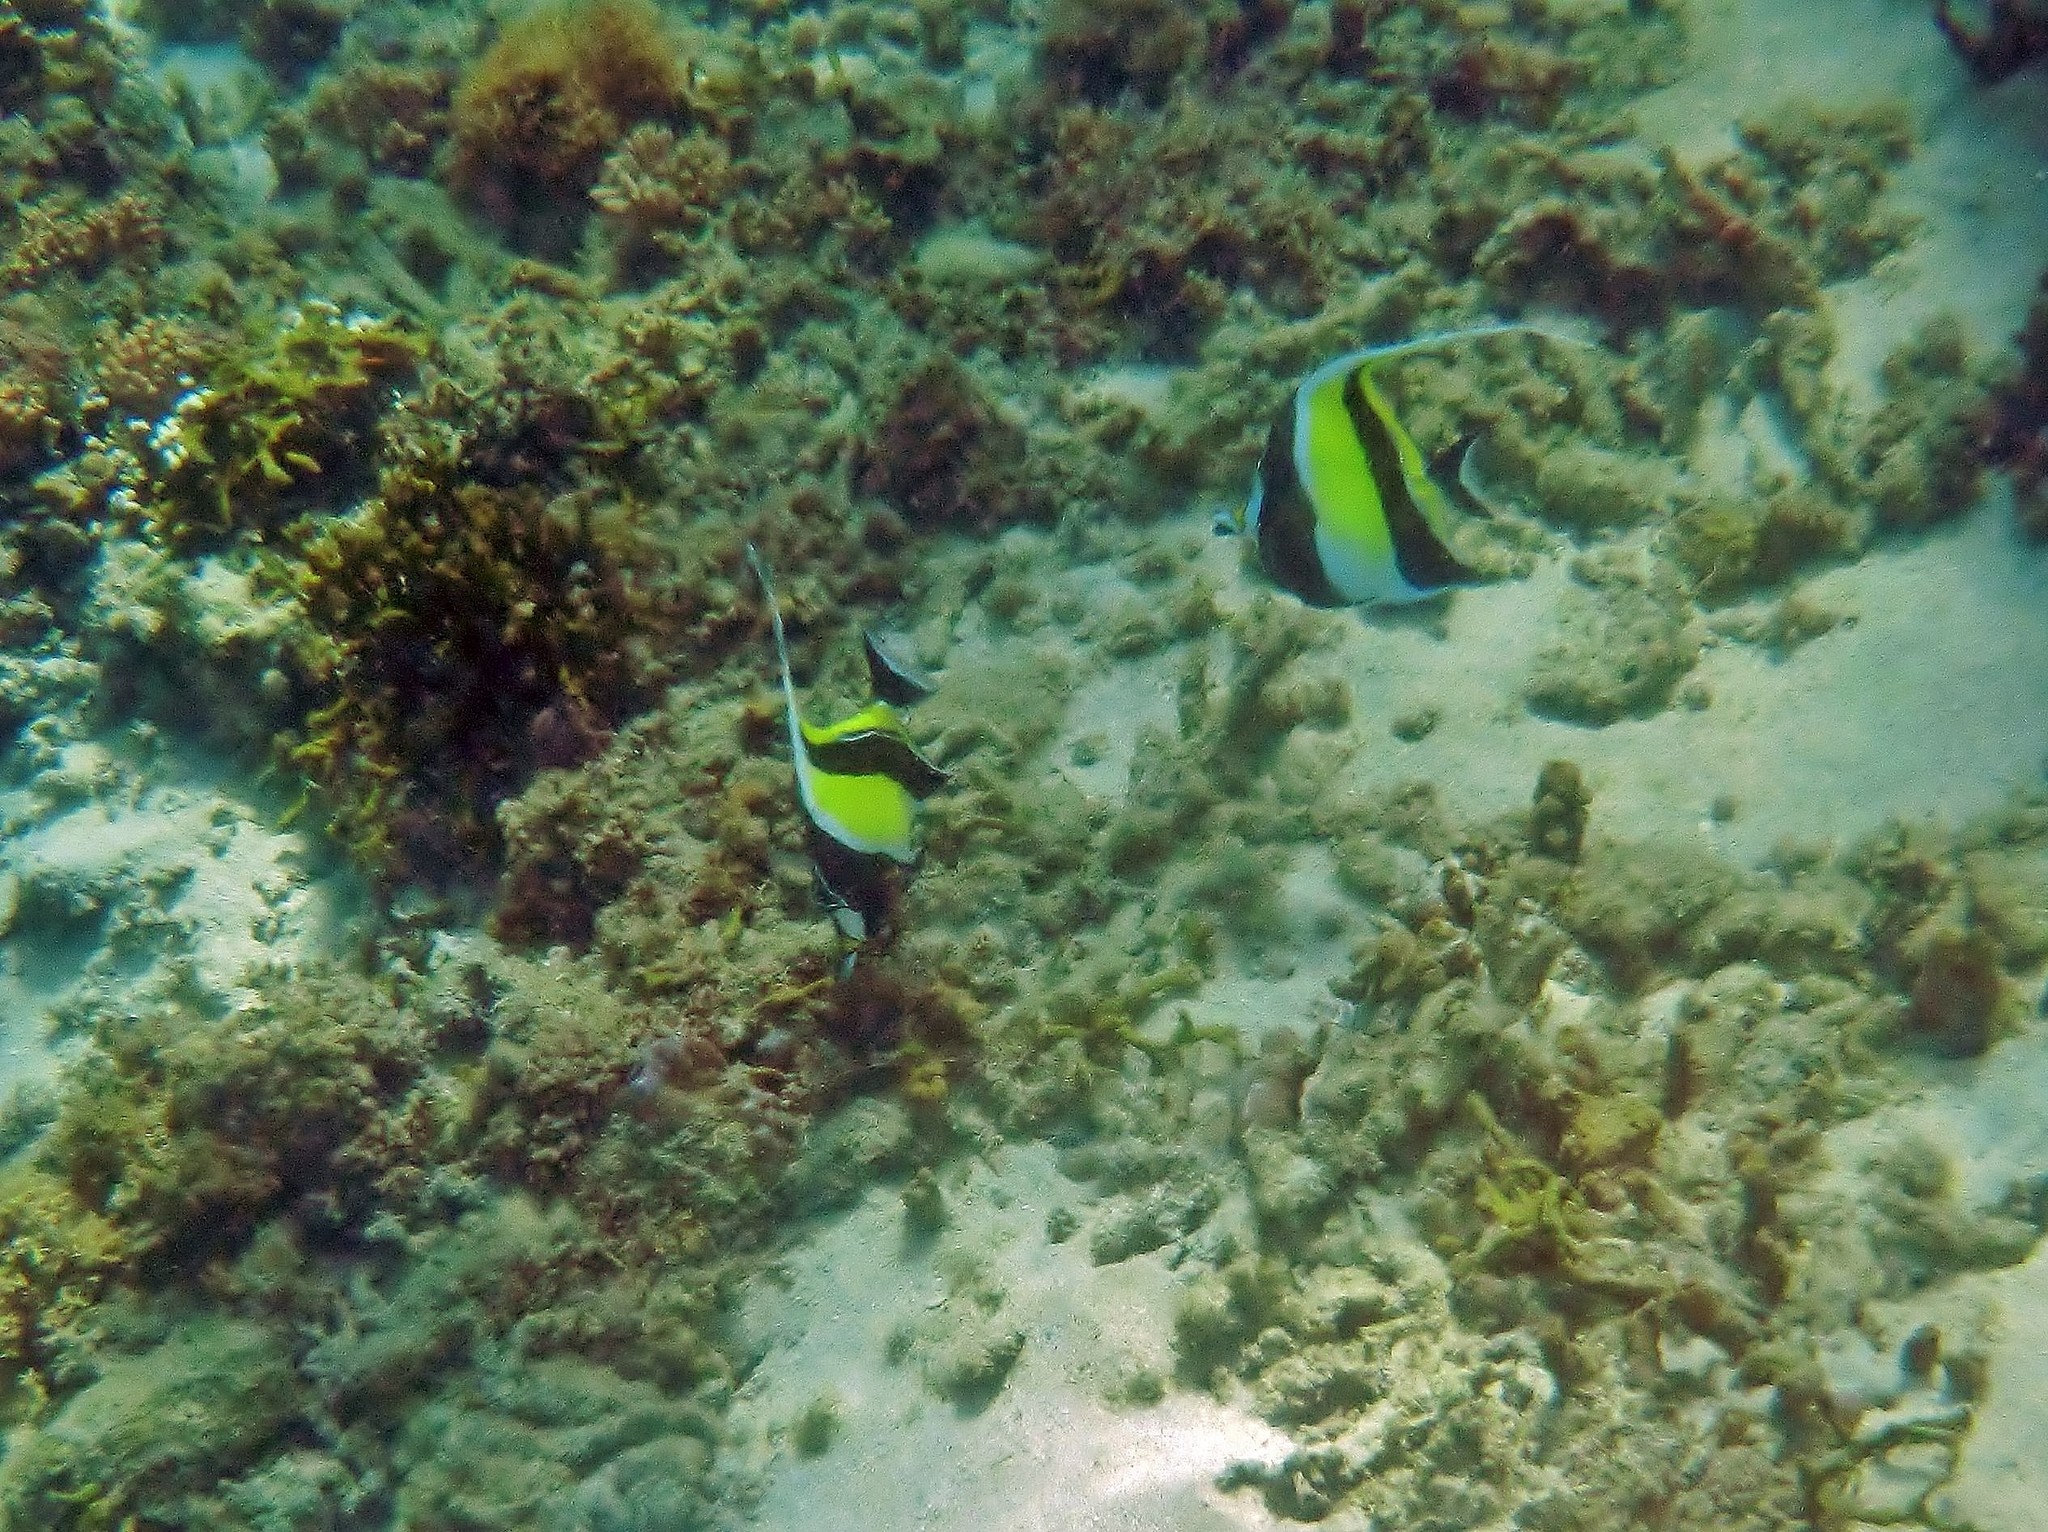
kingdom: Animalia
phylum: Chordata
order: Perciformes
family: Zanclidae
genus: Zanclus
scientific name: Zanclus cornutus
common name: Moorish idol
